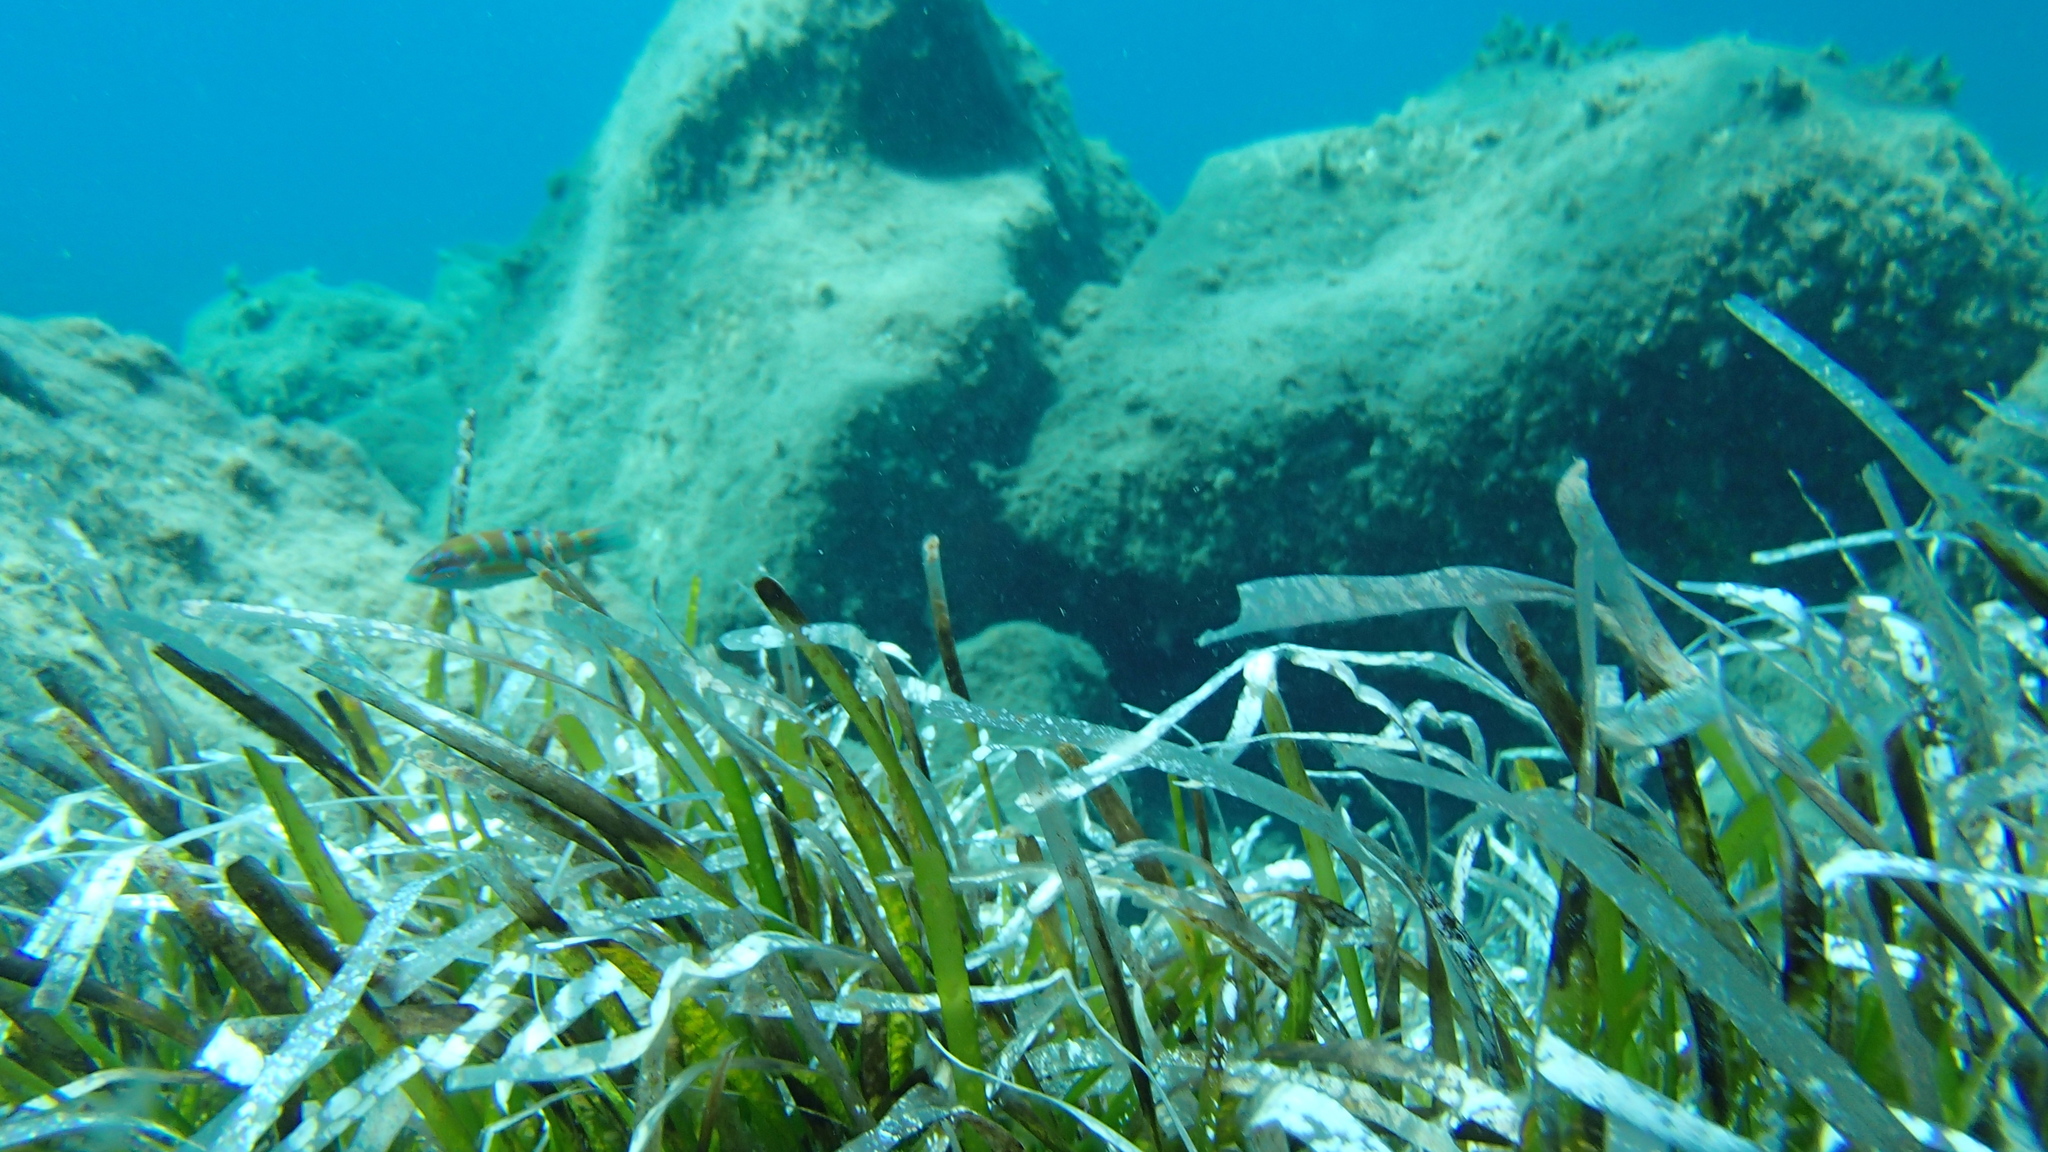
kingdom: Animalia
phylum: Chordata
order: Perciformes
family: Labridae
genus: Thalassoma
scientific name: Thalassoma pavo
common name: Ornate wrasse
